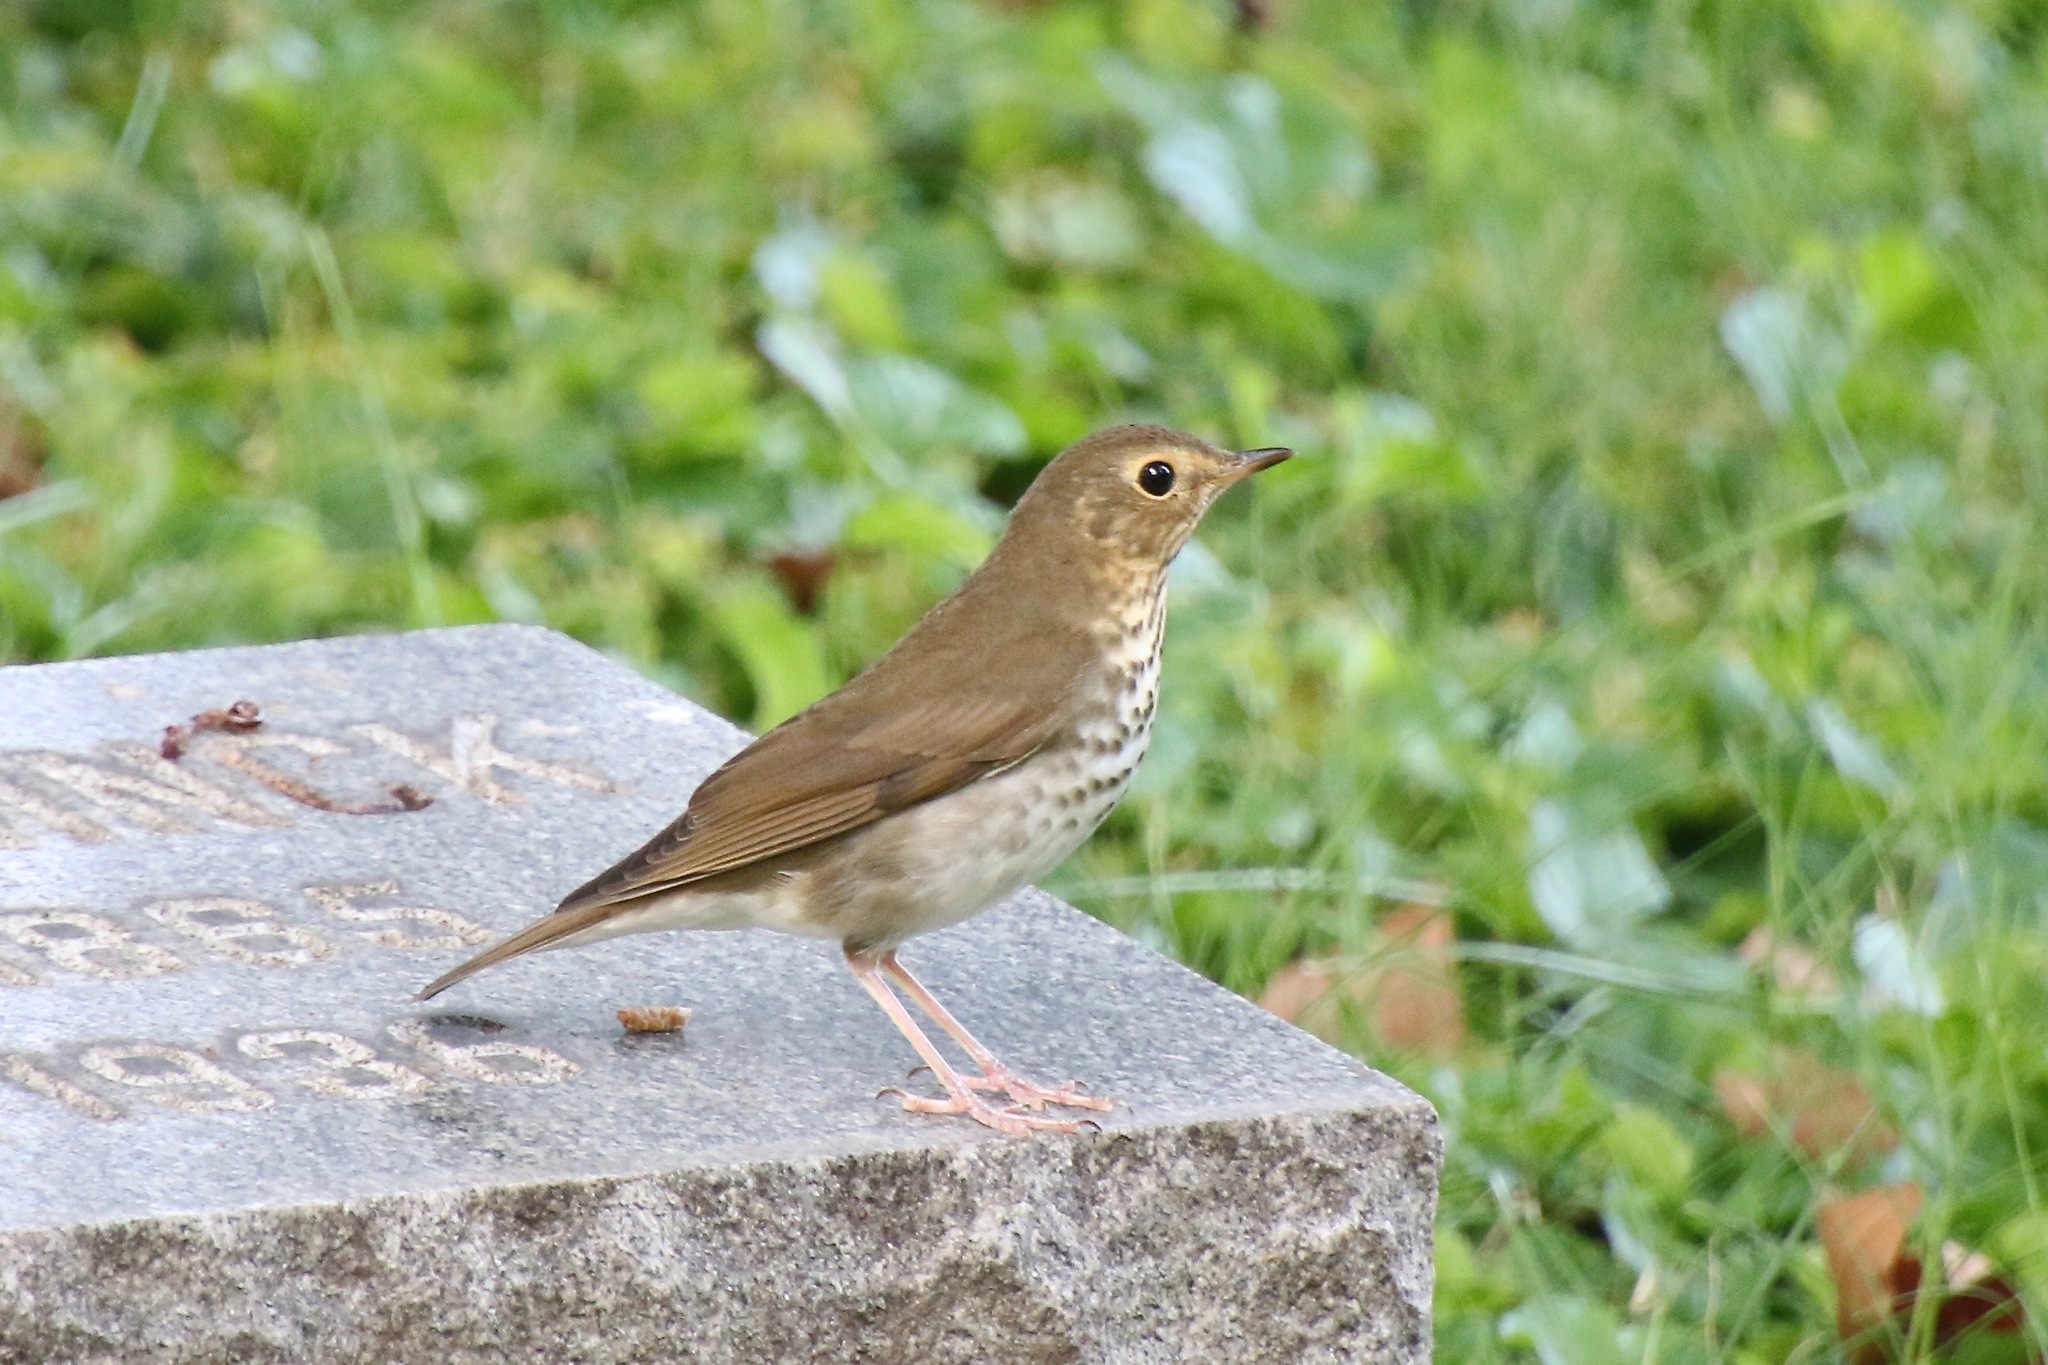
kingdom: Animalia
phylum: Chordata
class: Aves
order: Passeriformes
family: Turdidae
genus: Catharus
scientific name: Catharus ustulatus
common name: Swainson's thrush
